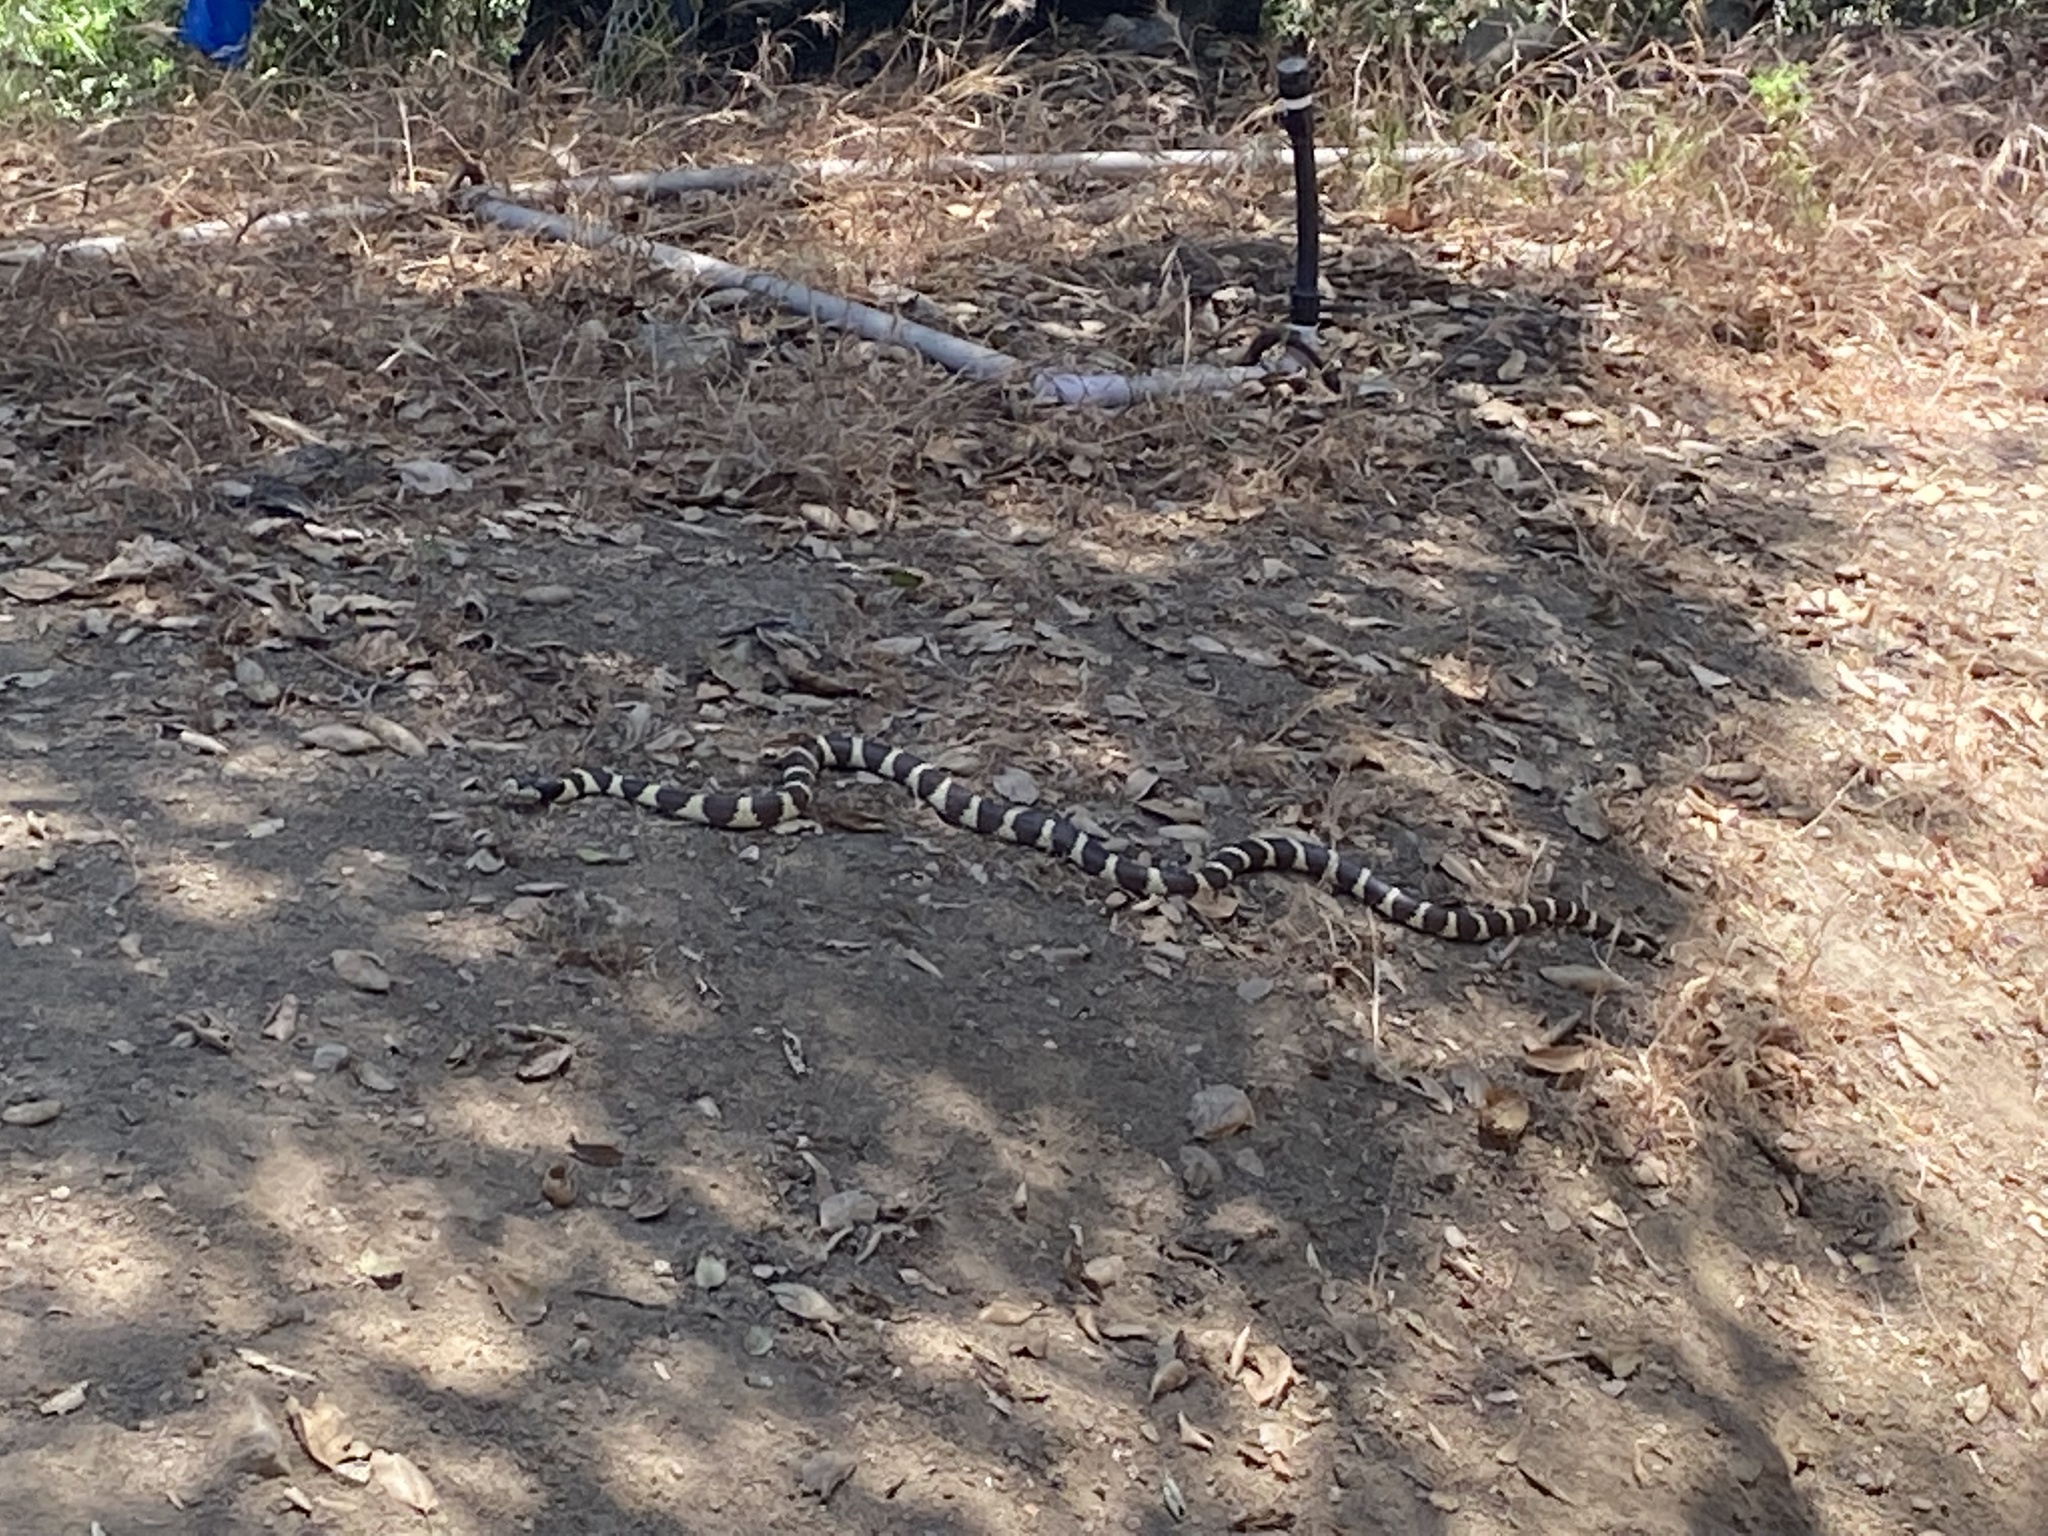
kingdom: Animalia
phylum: Chordata
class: Squamata
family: Colubridae
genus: Lampropeltis
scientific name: Lampropeltis californiae
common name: California kingsnake
